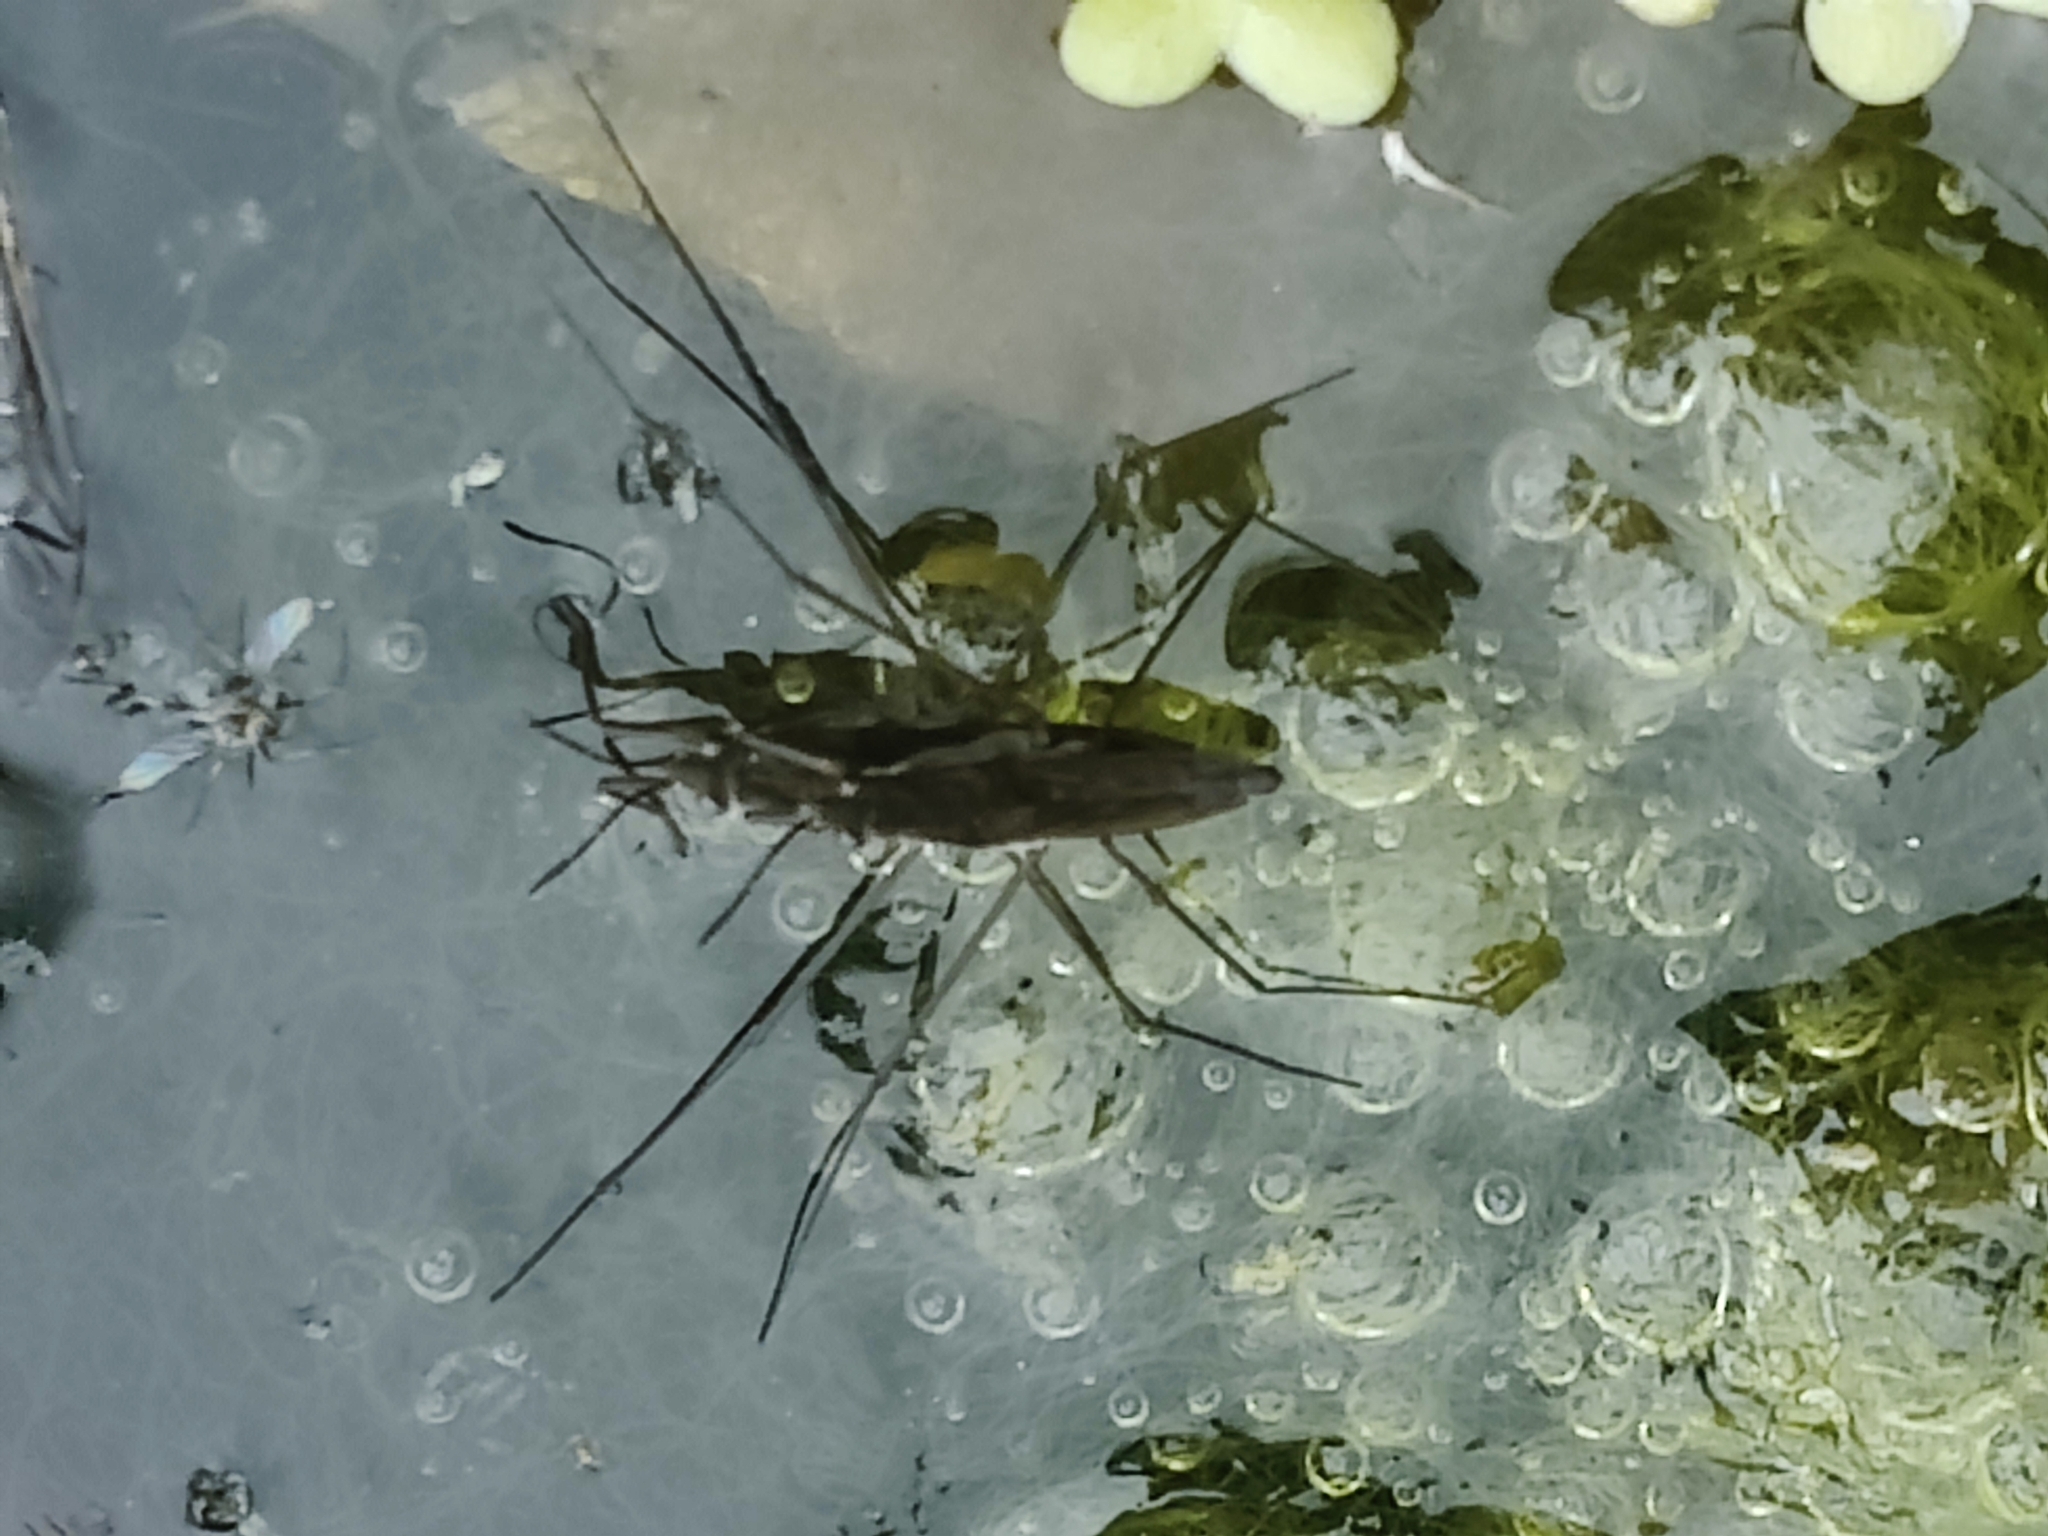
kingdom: Animalia
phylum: Arthropoda
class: Insecta
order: Hemiptera
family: Gerridae
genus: Gerris
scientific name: Gerris
